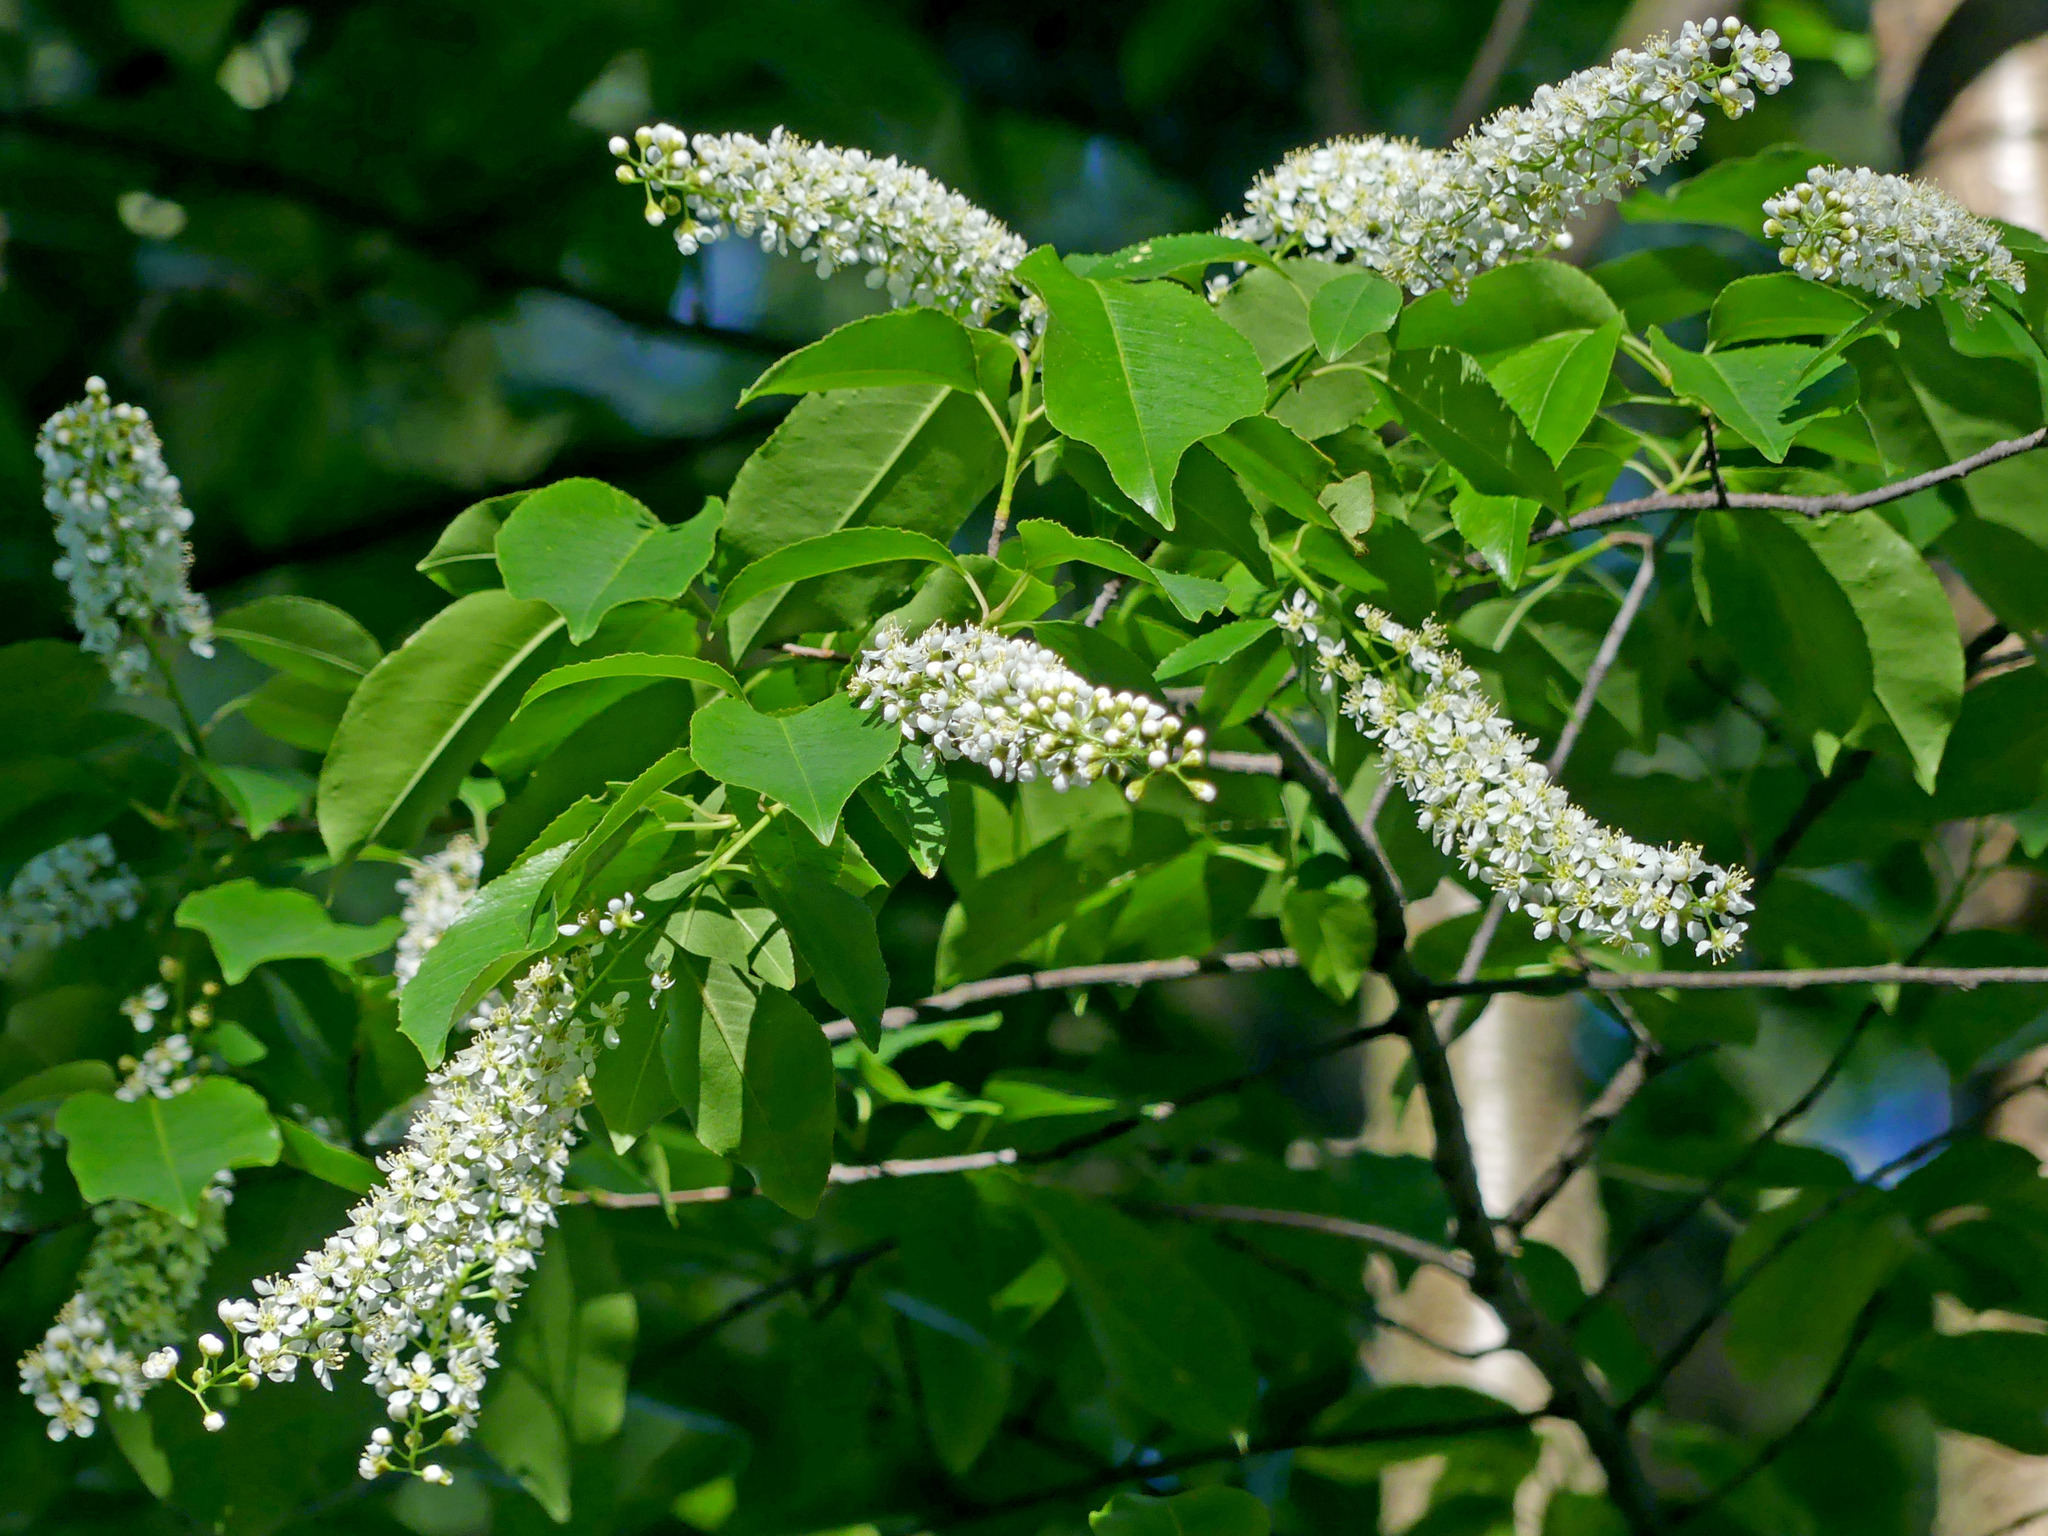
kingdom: Plantae
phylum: Tracheophyta
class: Magnoliopsida
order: Rosales
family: Rosaceae
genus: Prunus
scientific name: Prunus serotina
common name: Black cherry
